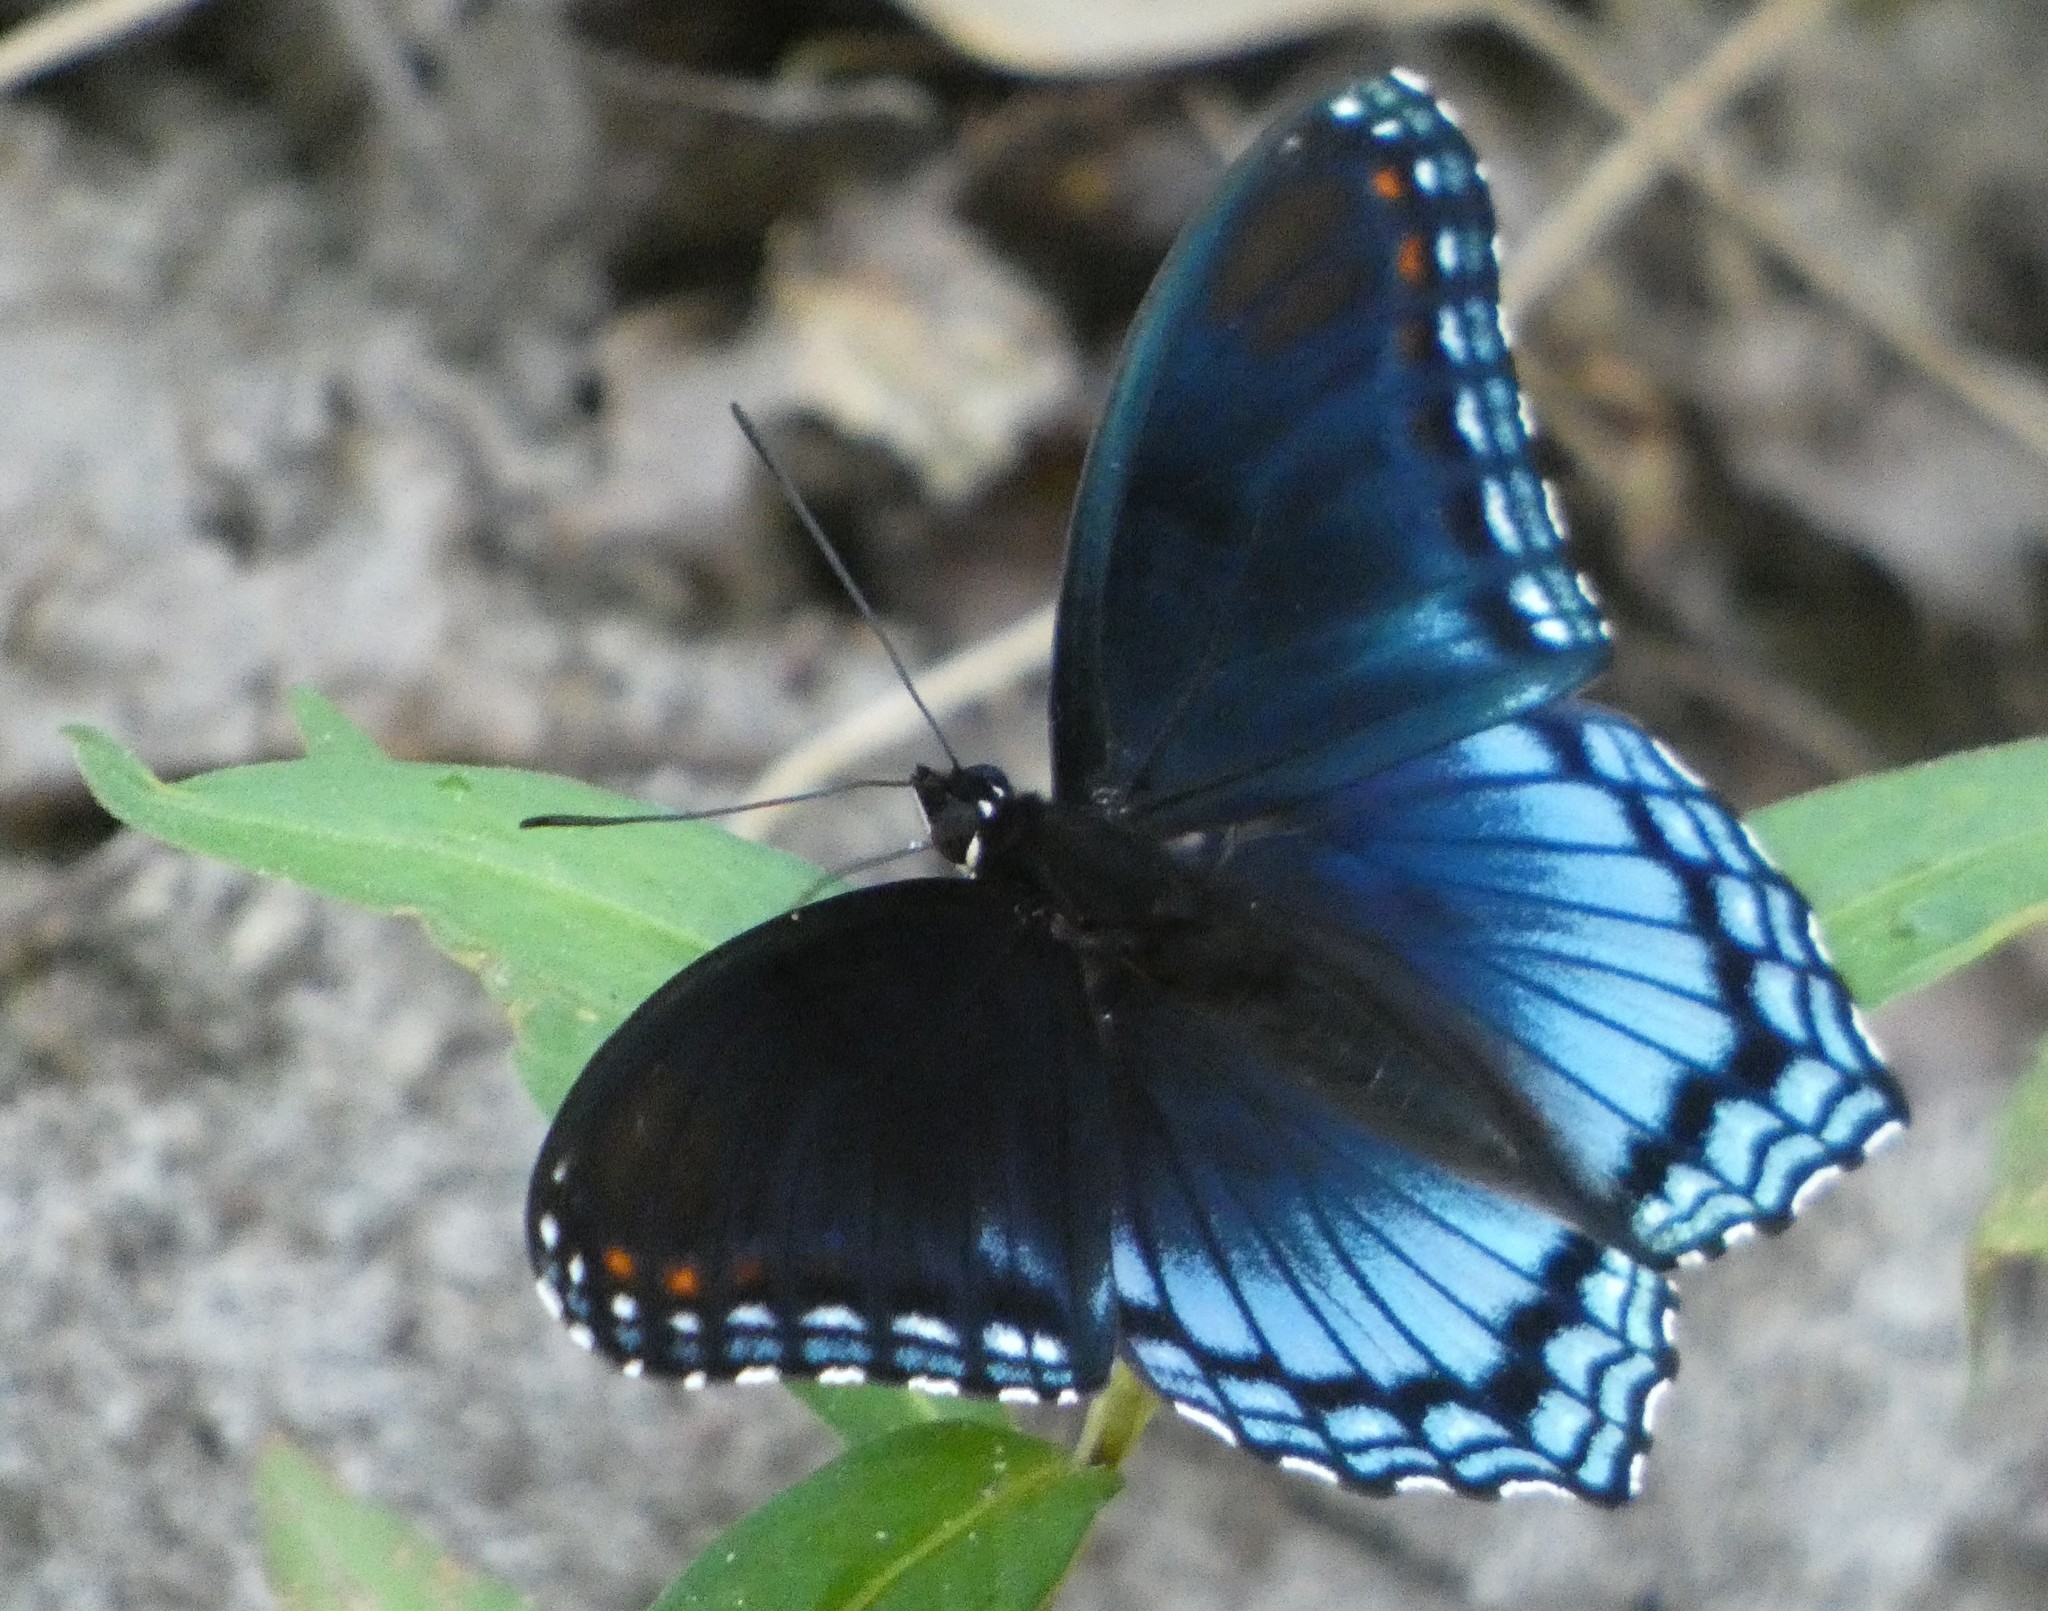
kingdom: Animalia
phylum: Arthropoda
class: Insecta
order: Lepidoptera
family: Nymphalidae
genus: Limenitis
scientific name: Limenitis astyanax
